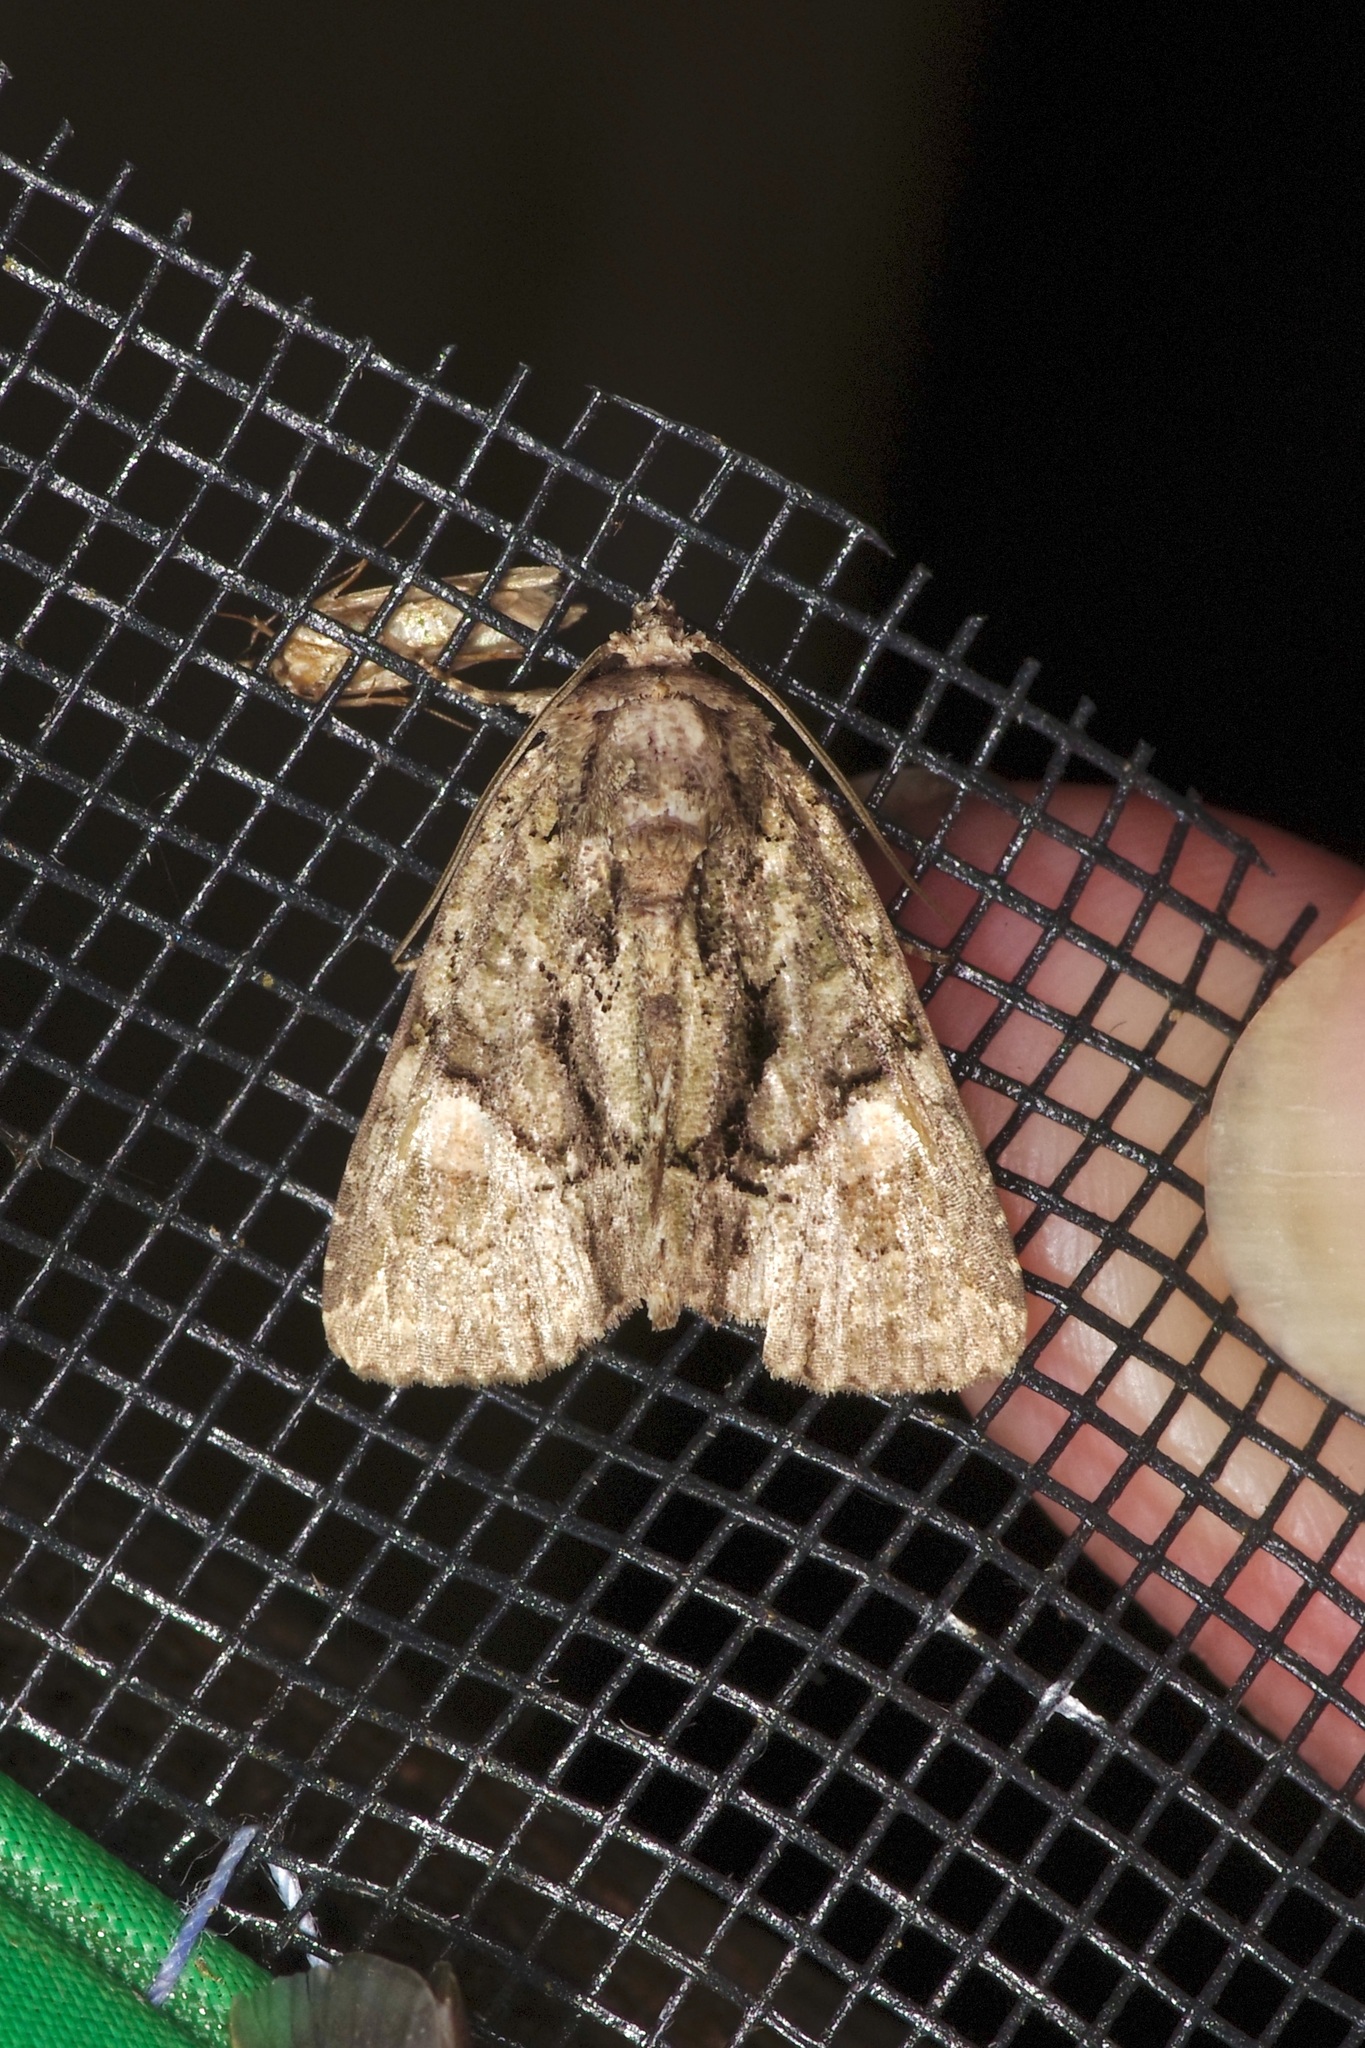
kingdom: Animalia
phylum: Arthropoda
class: Insecta
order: Lepidoptera
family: Noctuidae
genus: Phosphila
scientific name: Phosphila miselioides
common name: Spotted phosphila moth
